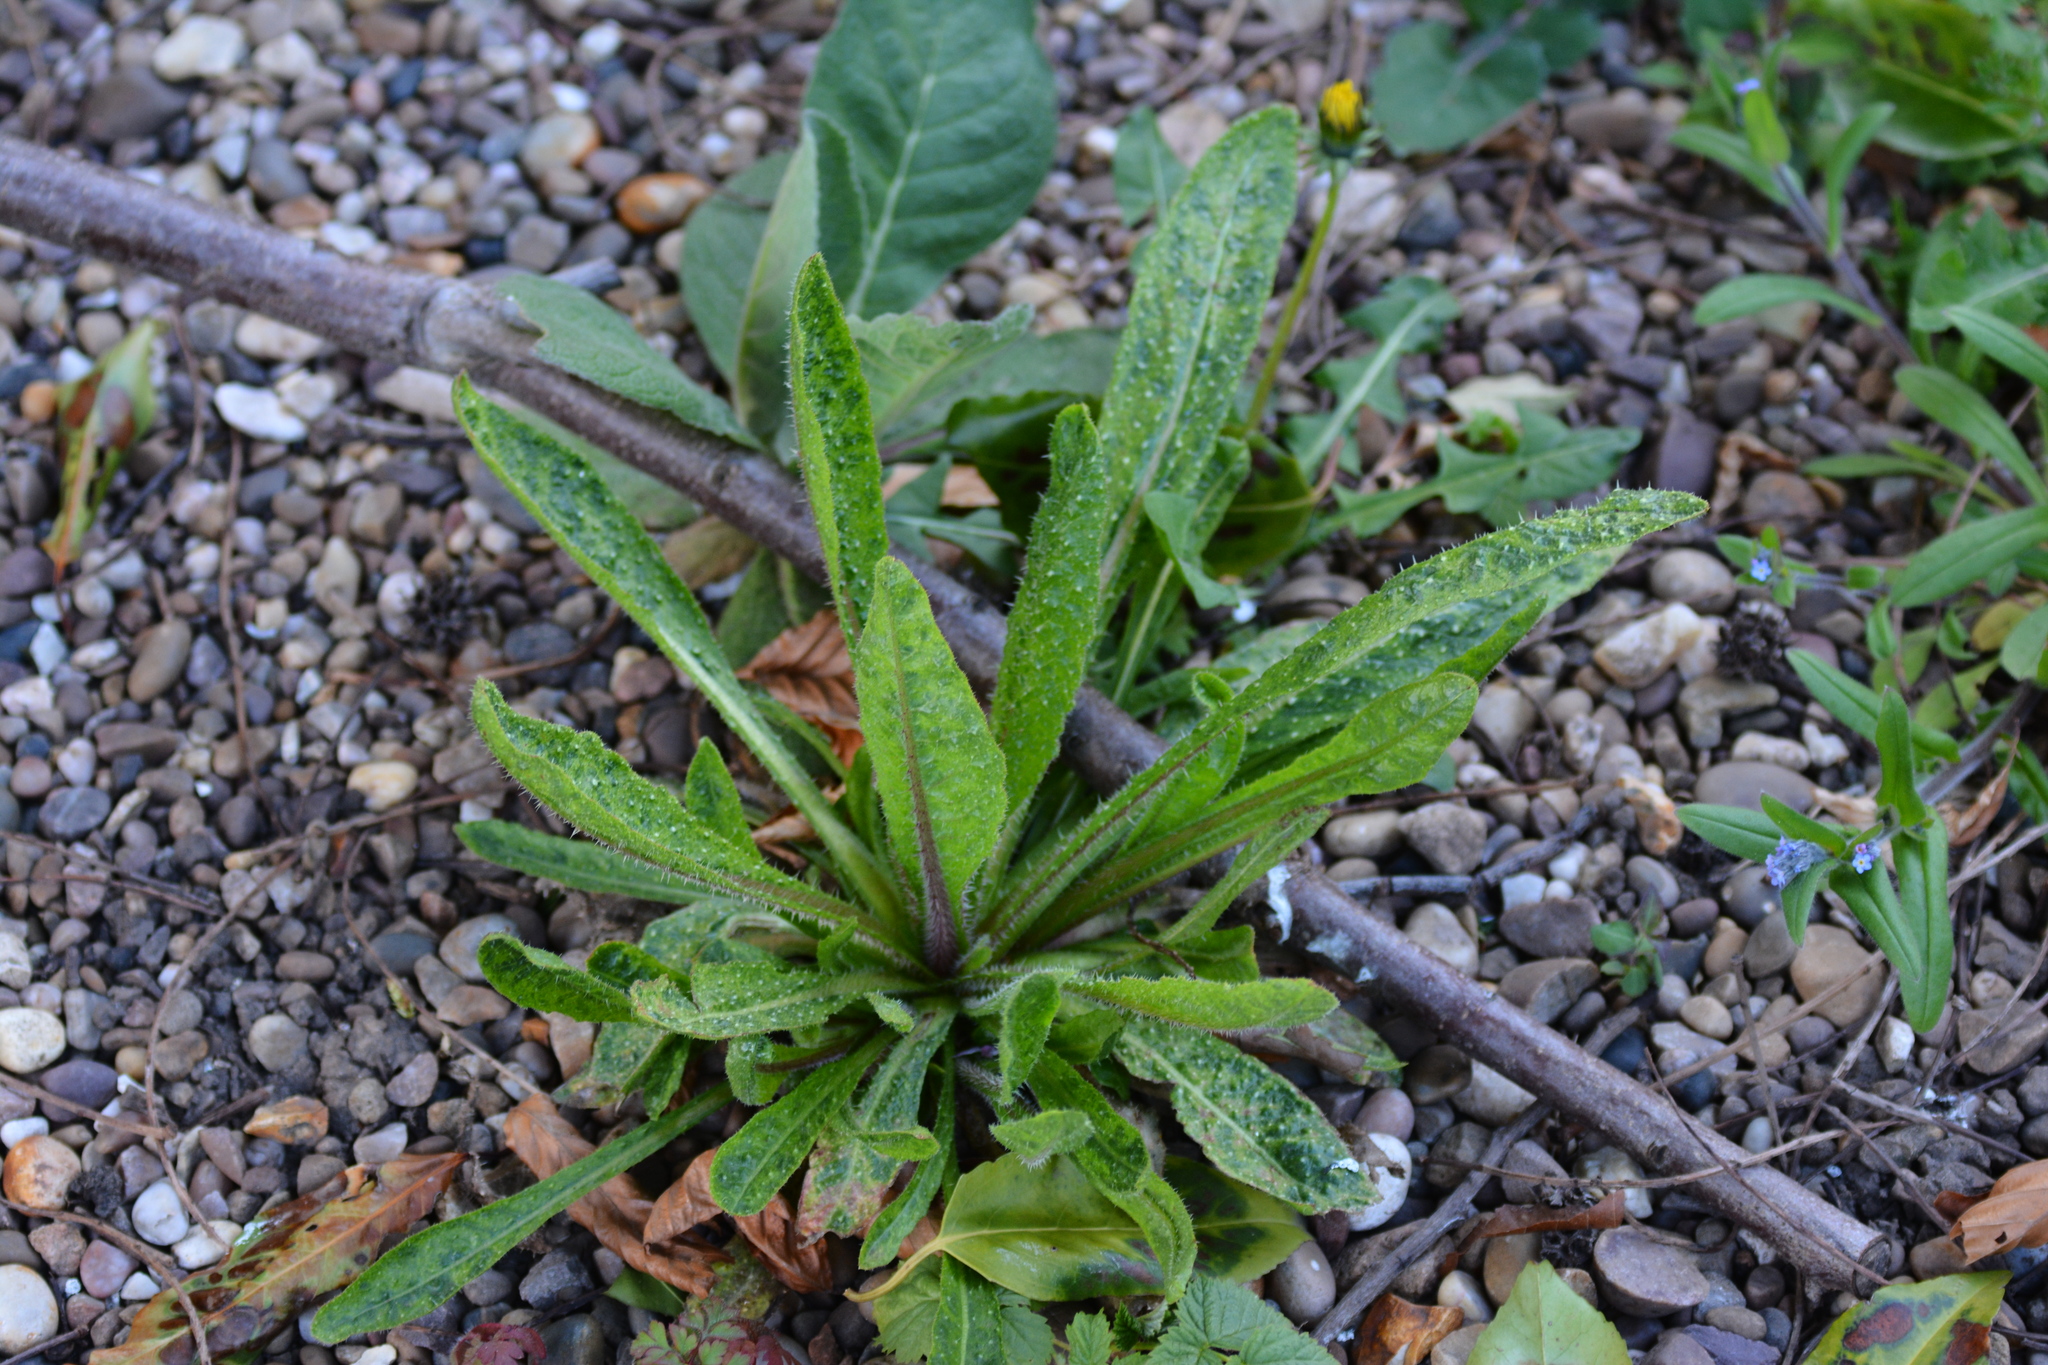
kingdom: Plantae
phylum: Tracheophyta
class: Magnoliopsida
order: Asterales
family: Asteraceae
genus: Helminthotheca
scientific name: Helminthotheca echioides
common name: Ox-tongue
